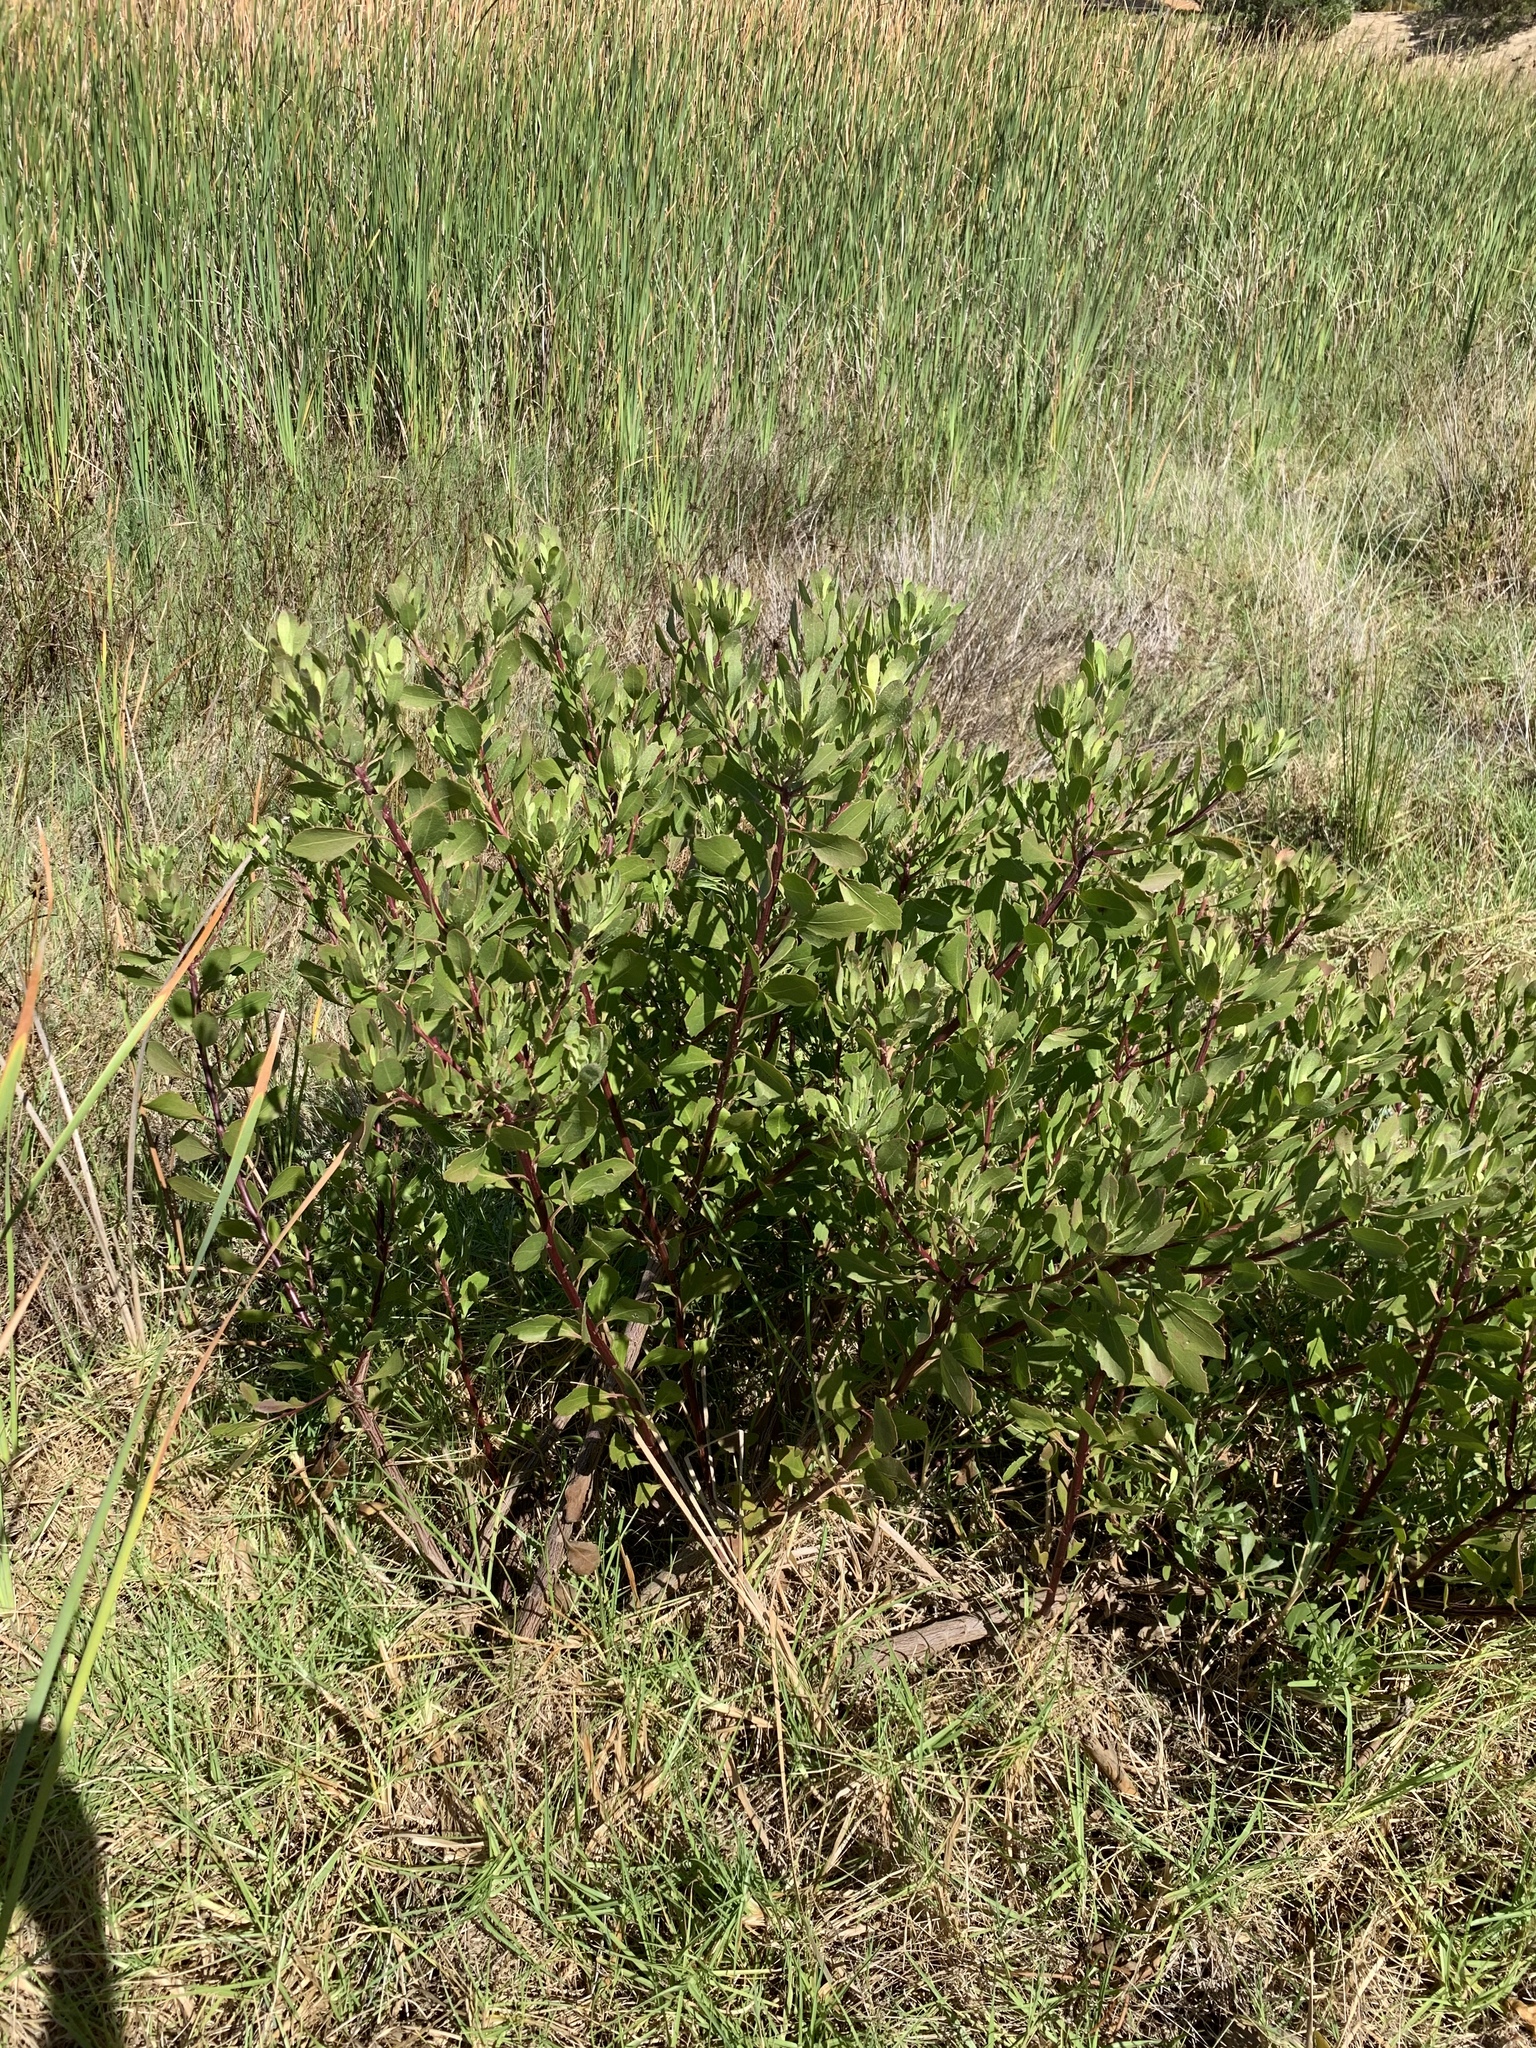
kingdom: Plantae
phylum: Tracheophyta
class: Magnoliopsida
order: Asterales
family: Asteraceae
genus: Osteospermum
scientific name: Osteospermum moniliferum
